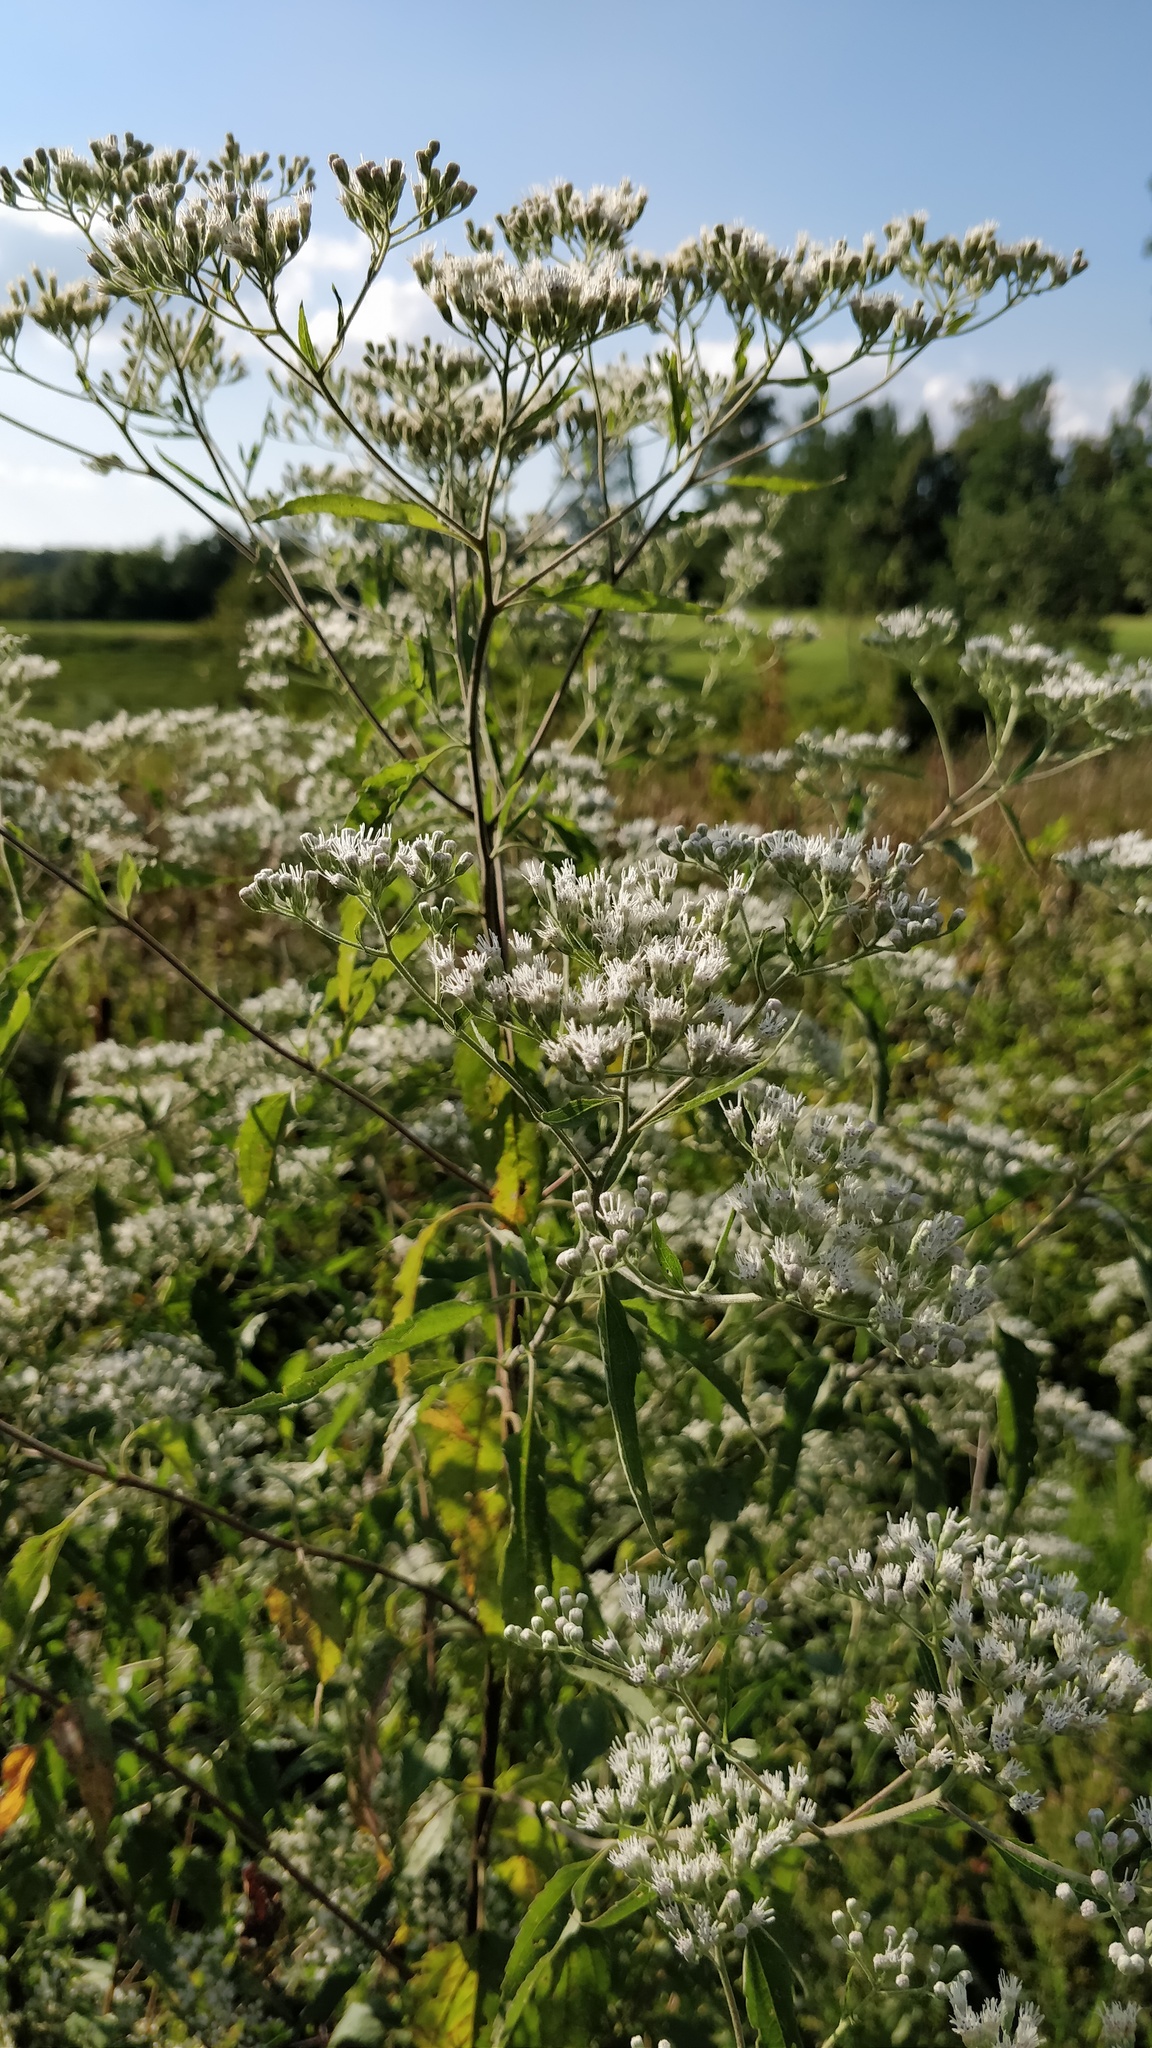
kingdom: Plantae
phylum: Tracheophyta
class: Magnoliopsida
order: Asterales
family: Asteraceae
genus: Eupatorium
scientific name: Eupatorium serotinum
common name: Late boneset
